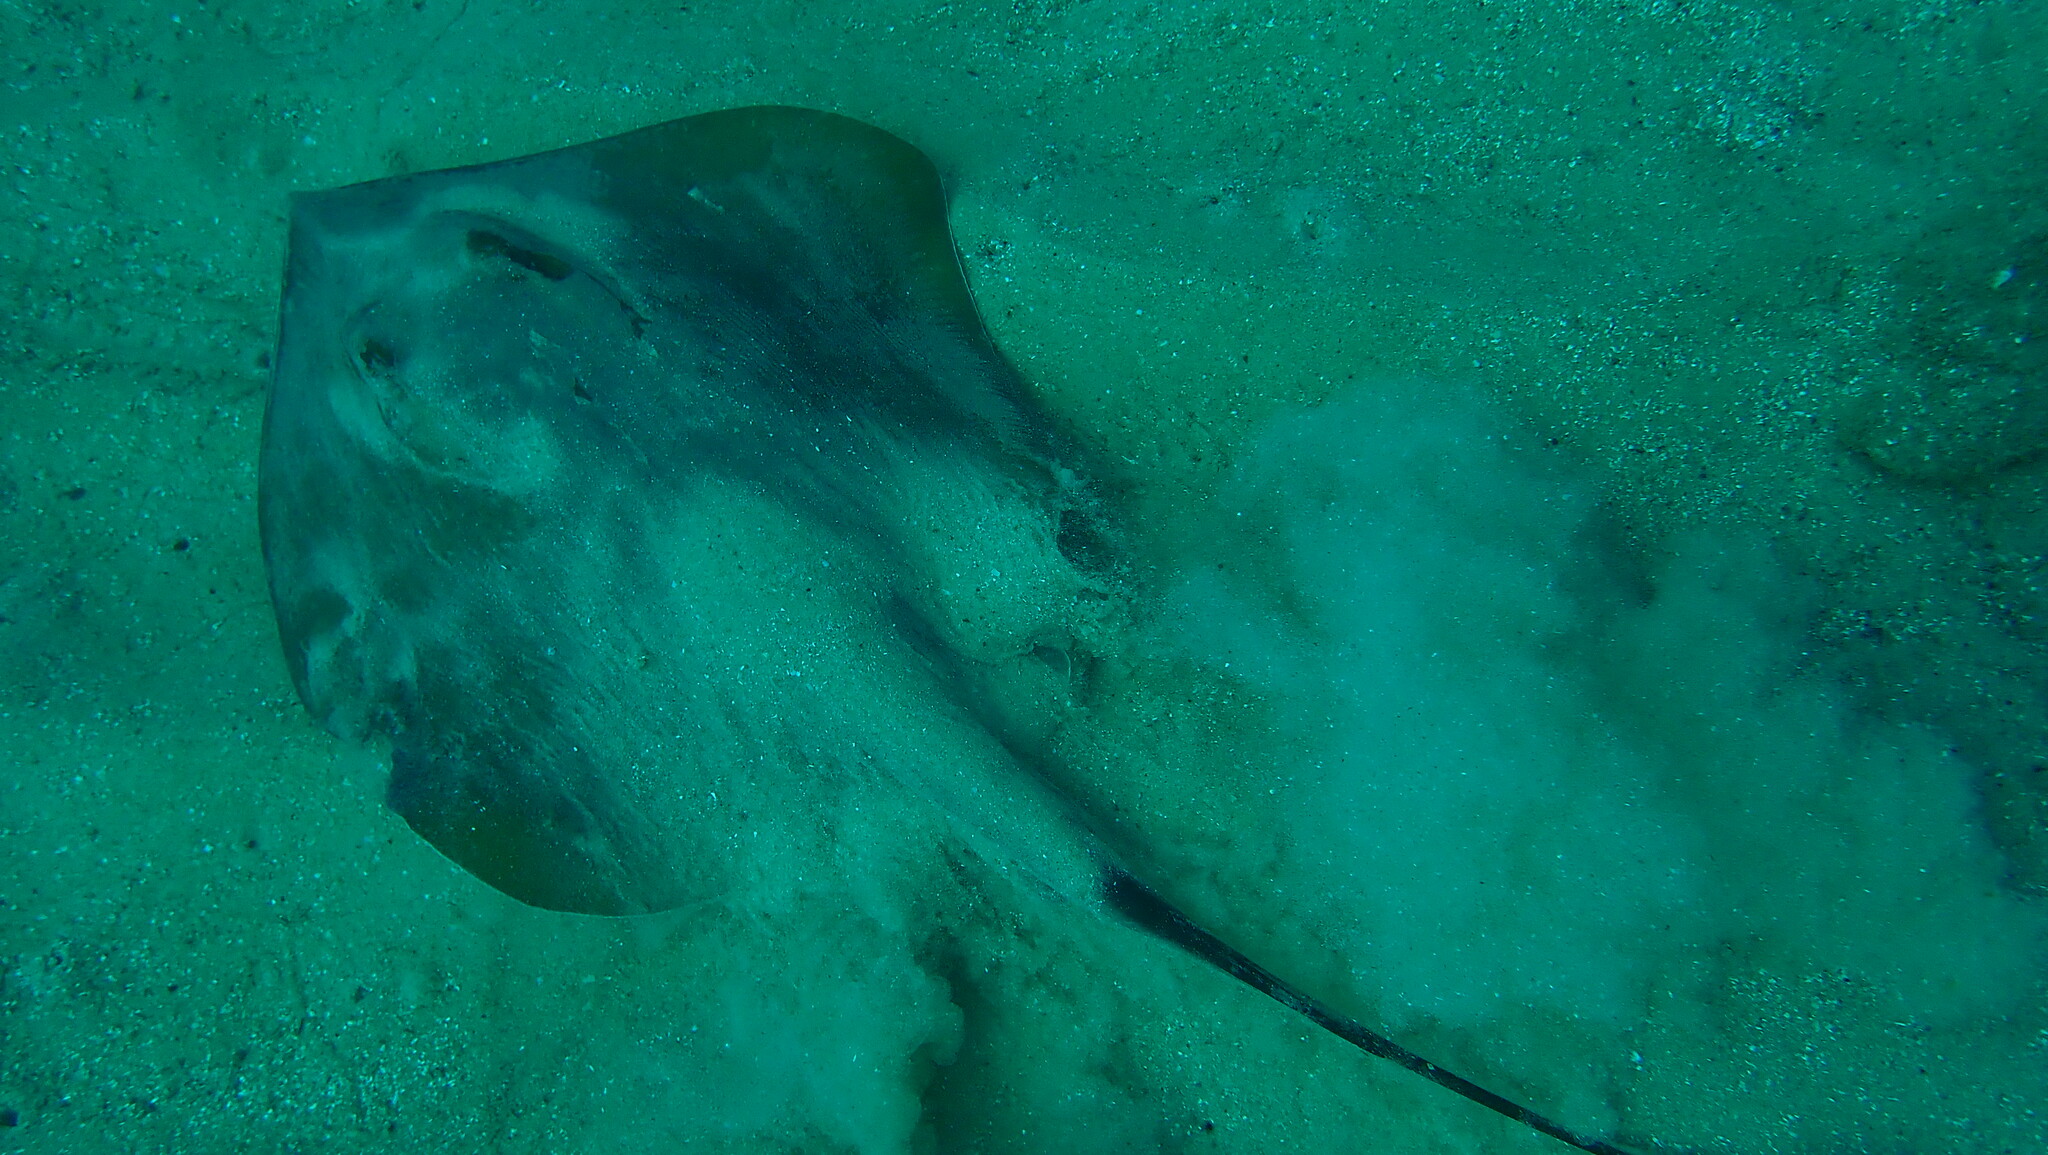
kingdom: Animalia
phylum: Chordata
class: Elasmobranchii
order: Myliobatiformes
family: Dasyatidae
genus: Dasyatis
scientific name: Dasyatis pastinaca
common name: Common stingray
